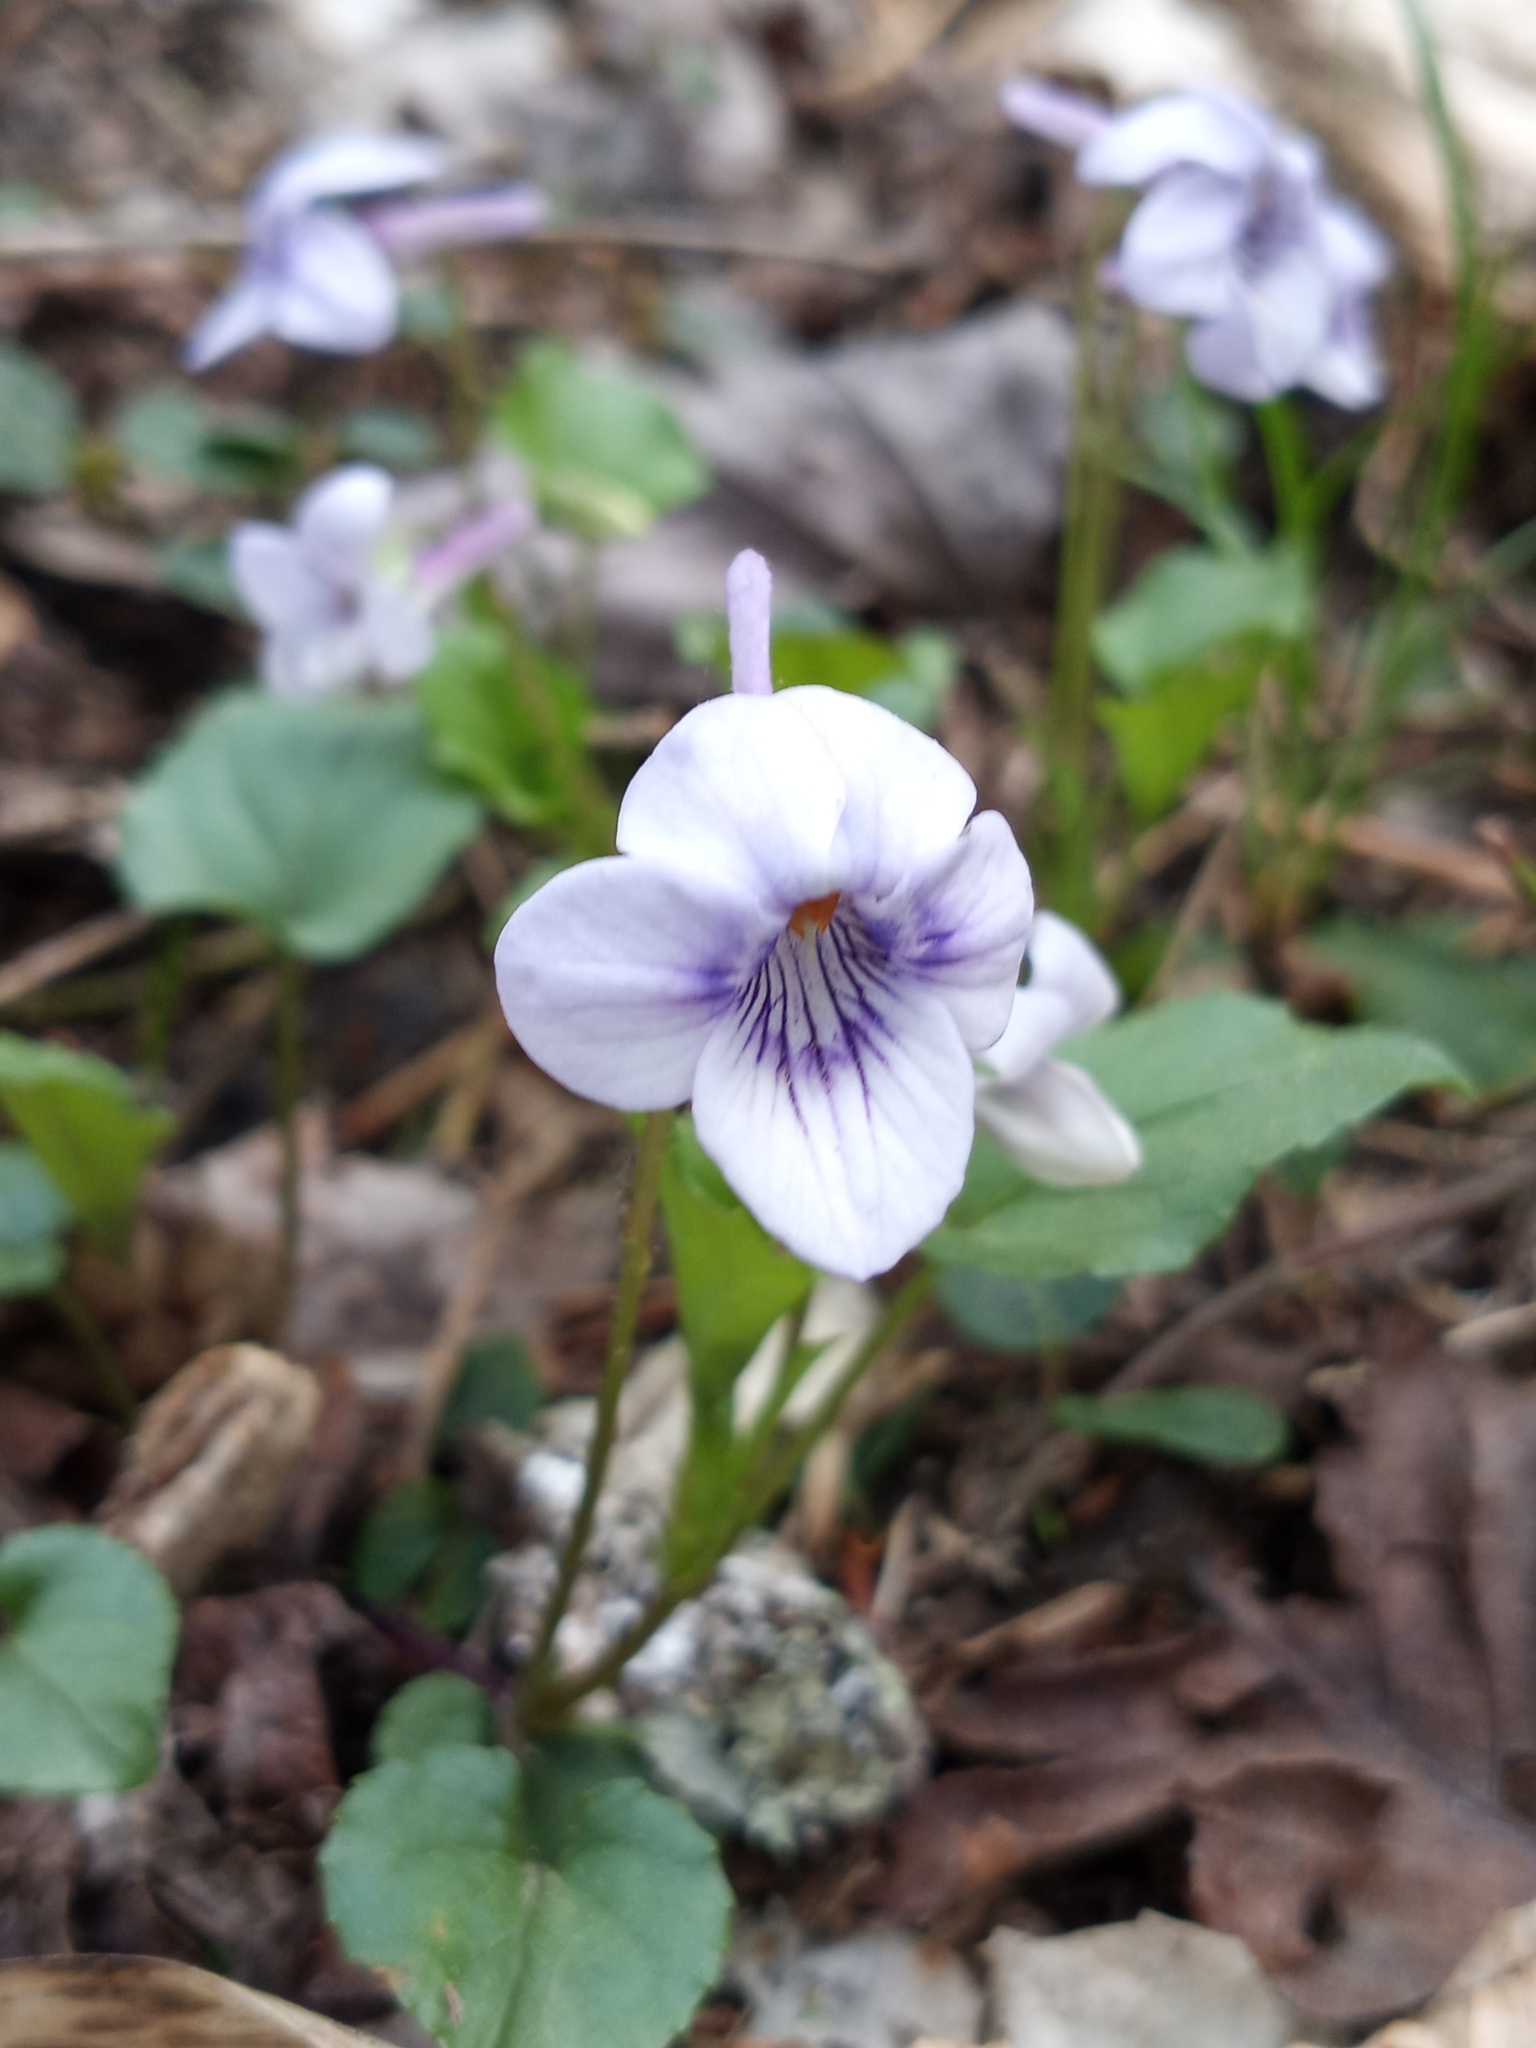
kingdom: Plantae
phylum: Tracheophyta
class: Magnoliopsida
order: Malpighiales
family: Violaceae
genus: Viola
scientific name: Viola rostrata
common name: Long-spur violet
